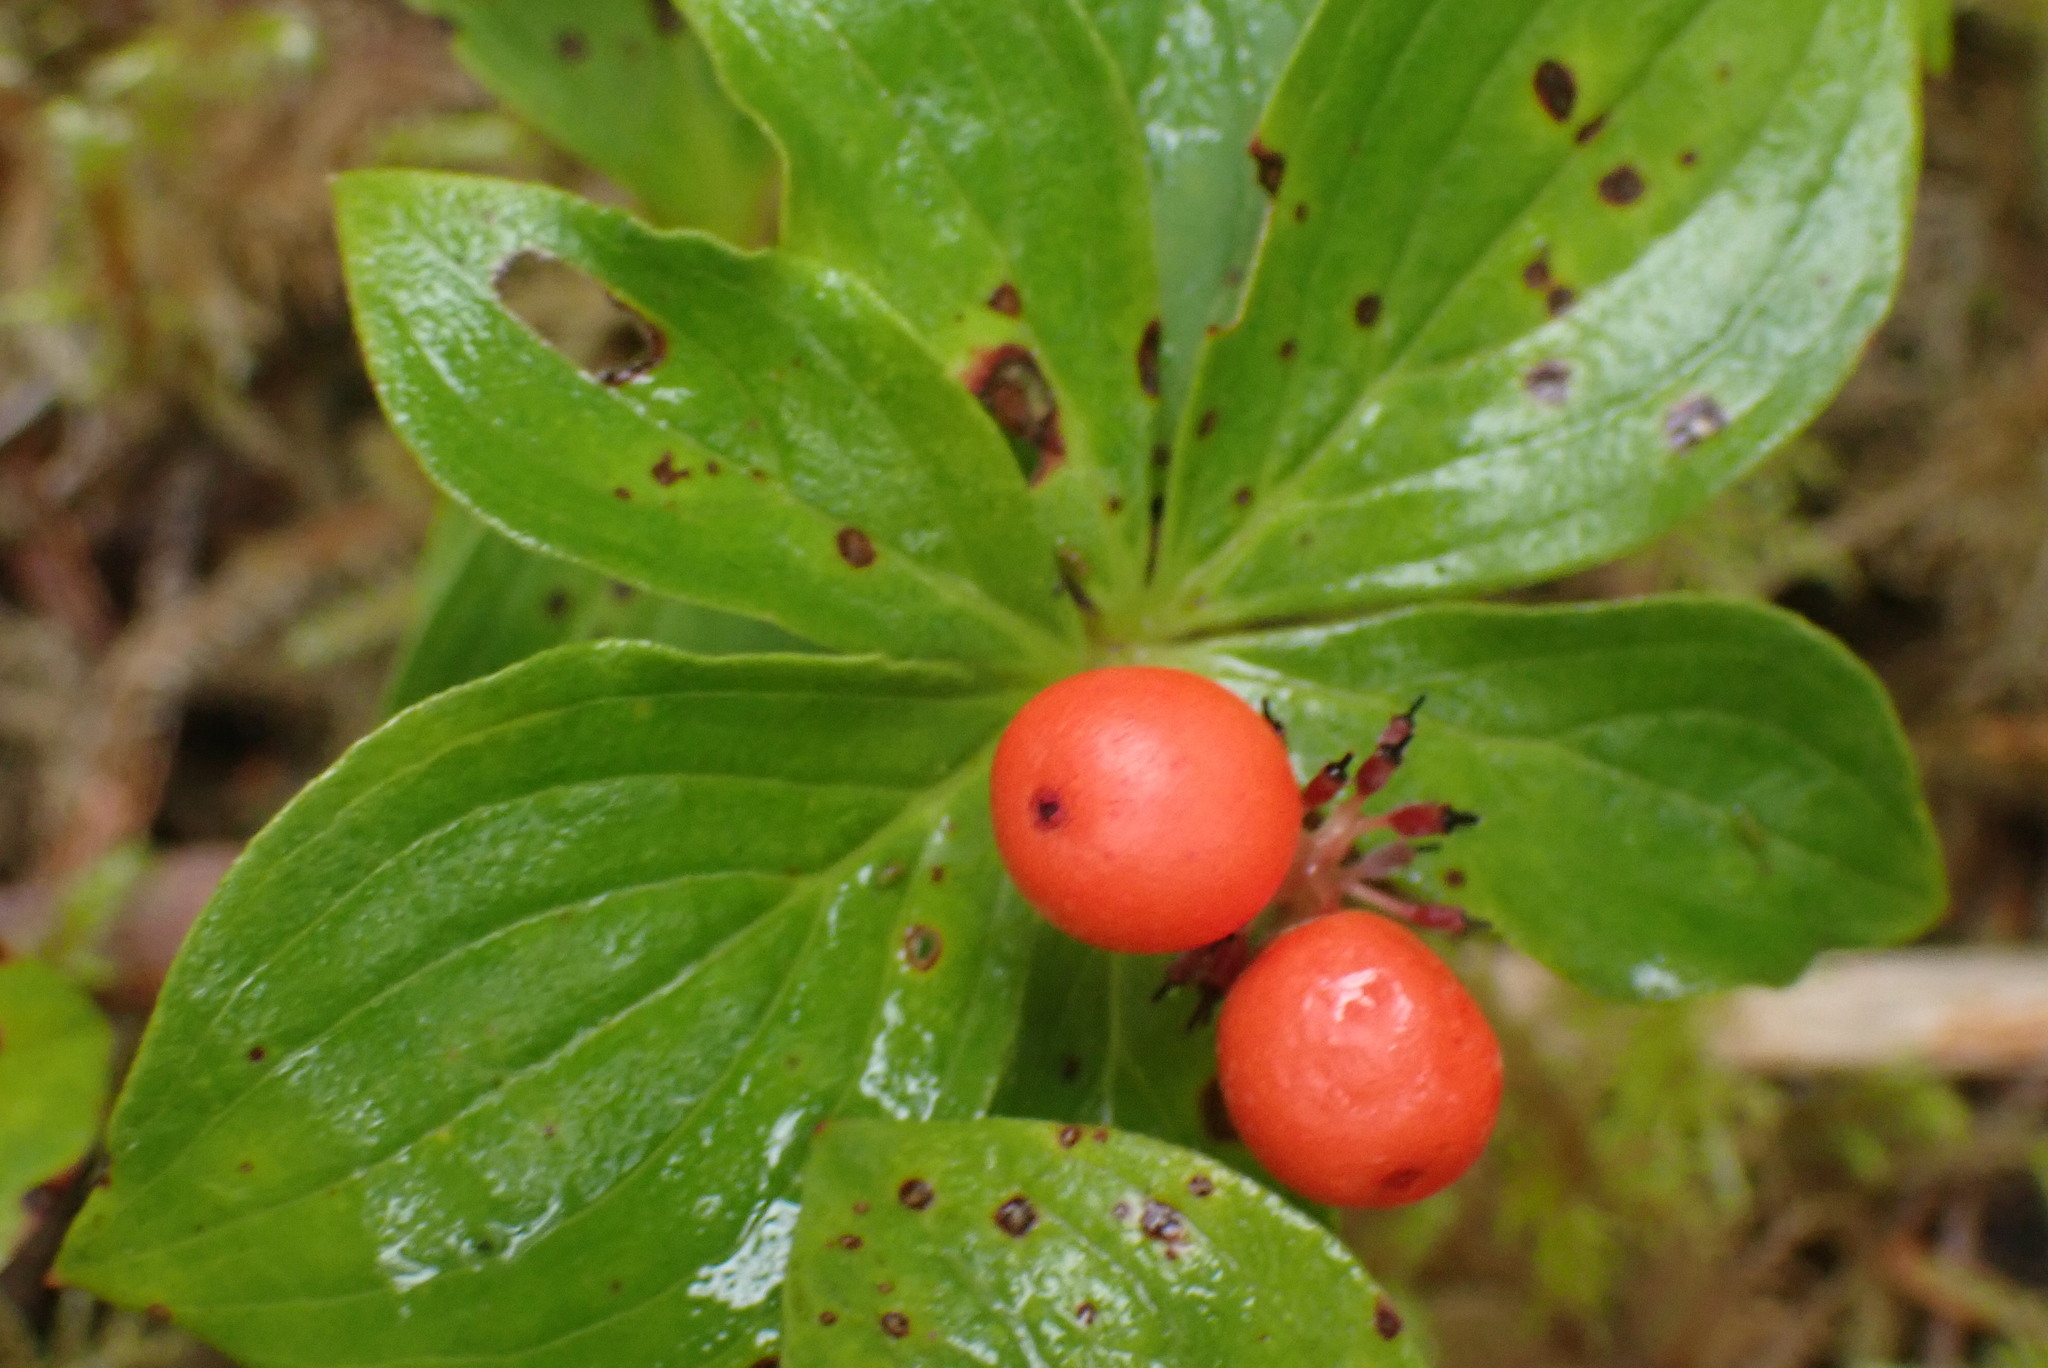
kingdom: Plantae
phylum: Tracheophyta
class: Magnoliopsida
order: Cornales
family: Cornaceae
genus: Cornus
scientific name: Cornus unalaschkensis
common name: Alaska bunchberry
